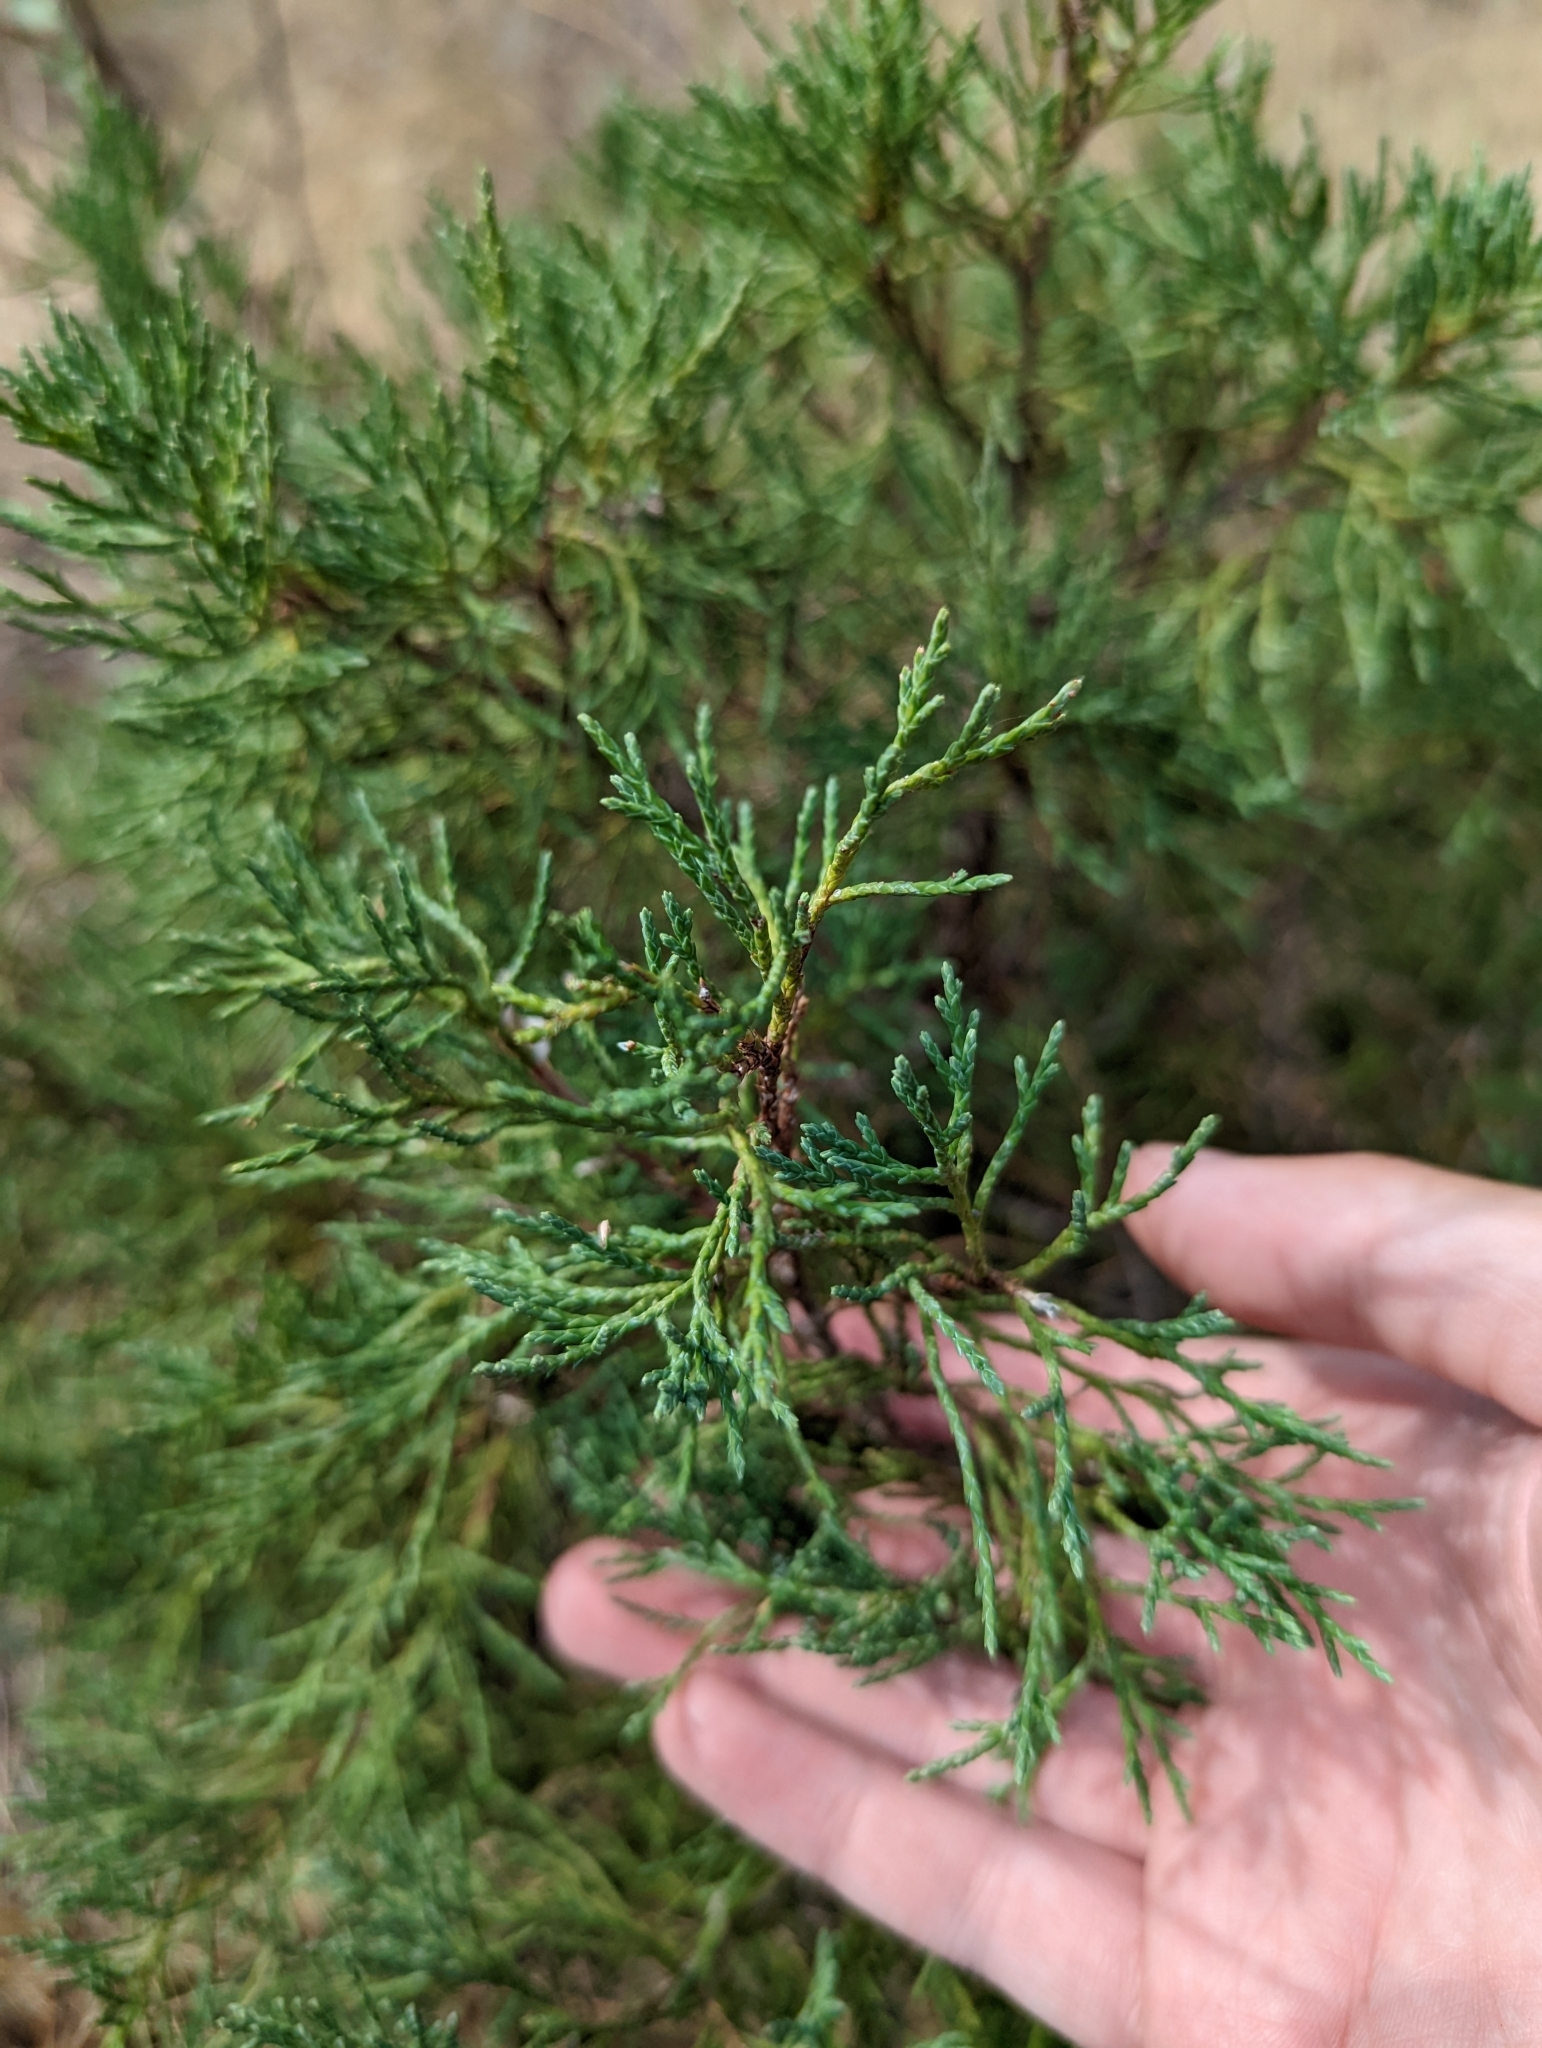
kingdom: Plantae
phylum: Tracheophyta
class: Pinopsida
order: Pinales
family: Cupressaceae
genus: Juniperus
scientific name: Juniperus scopulorum
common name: Rocky mountain juniper
